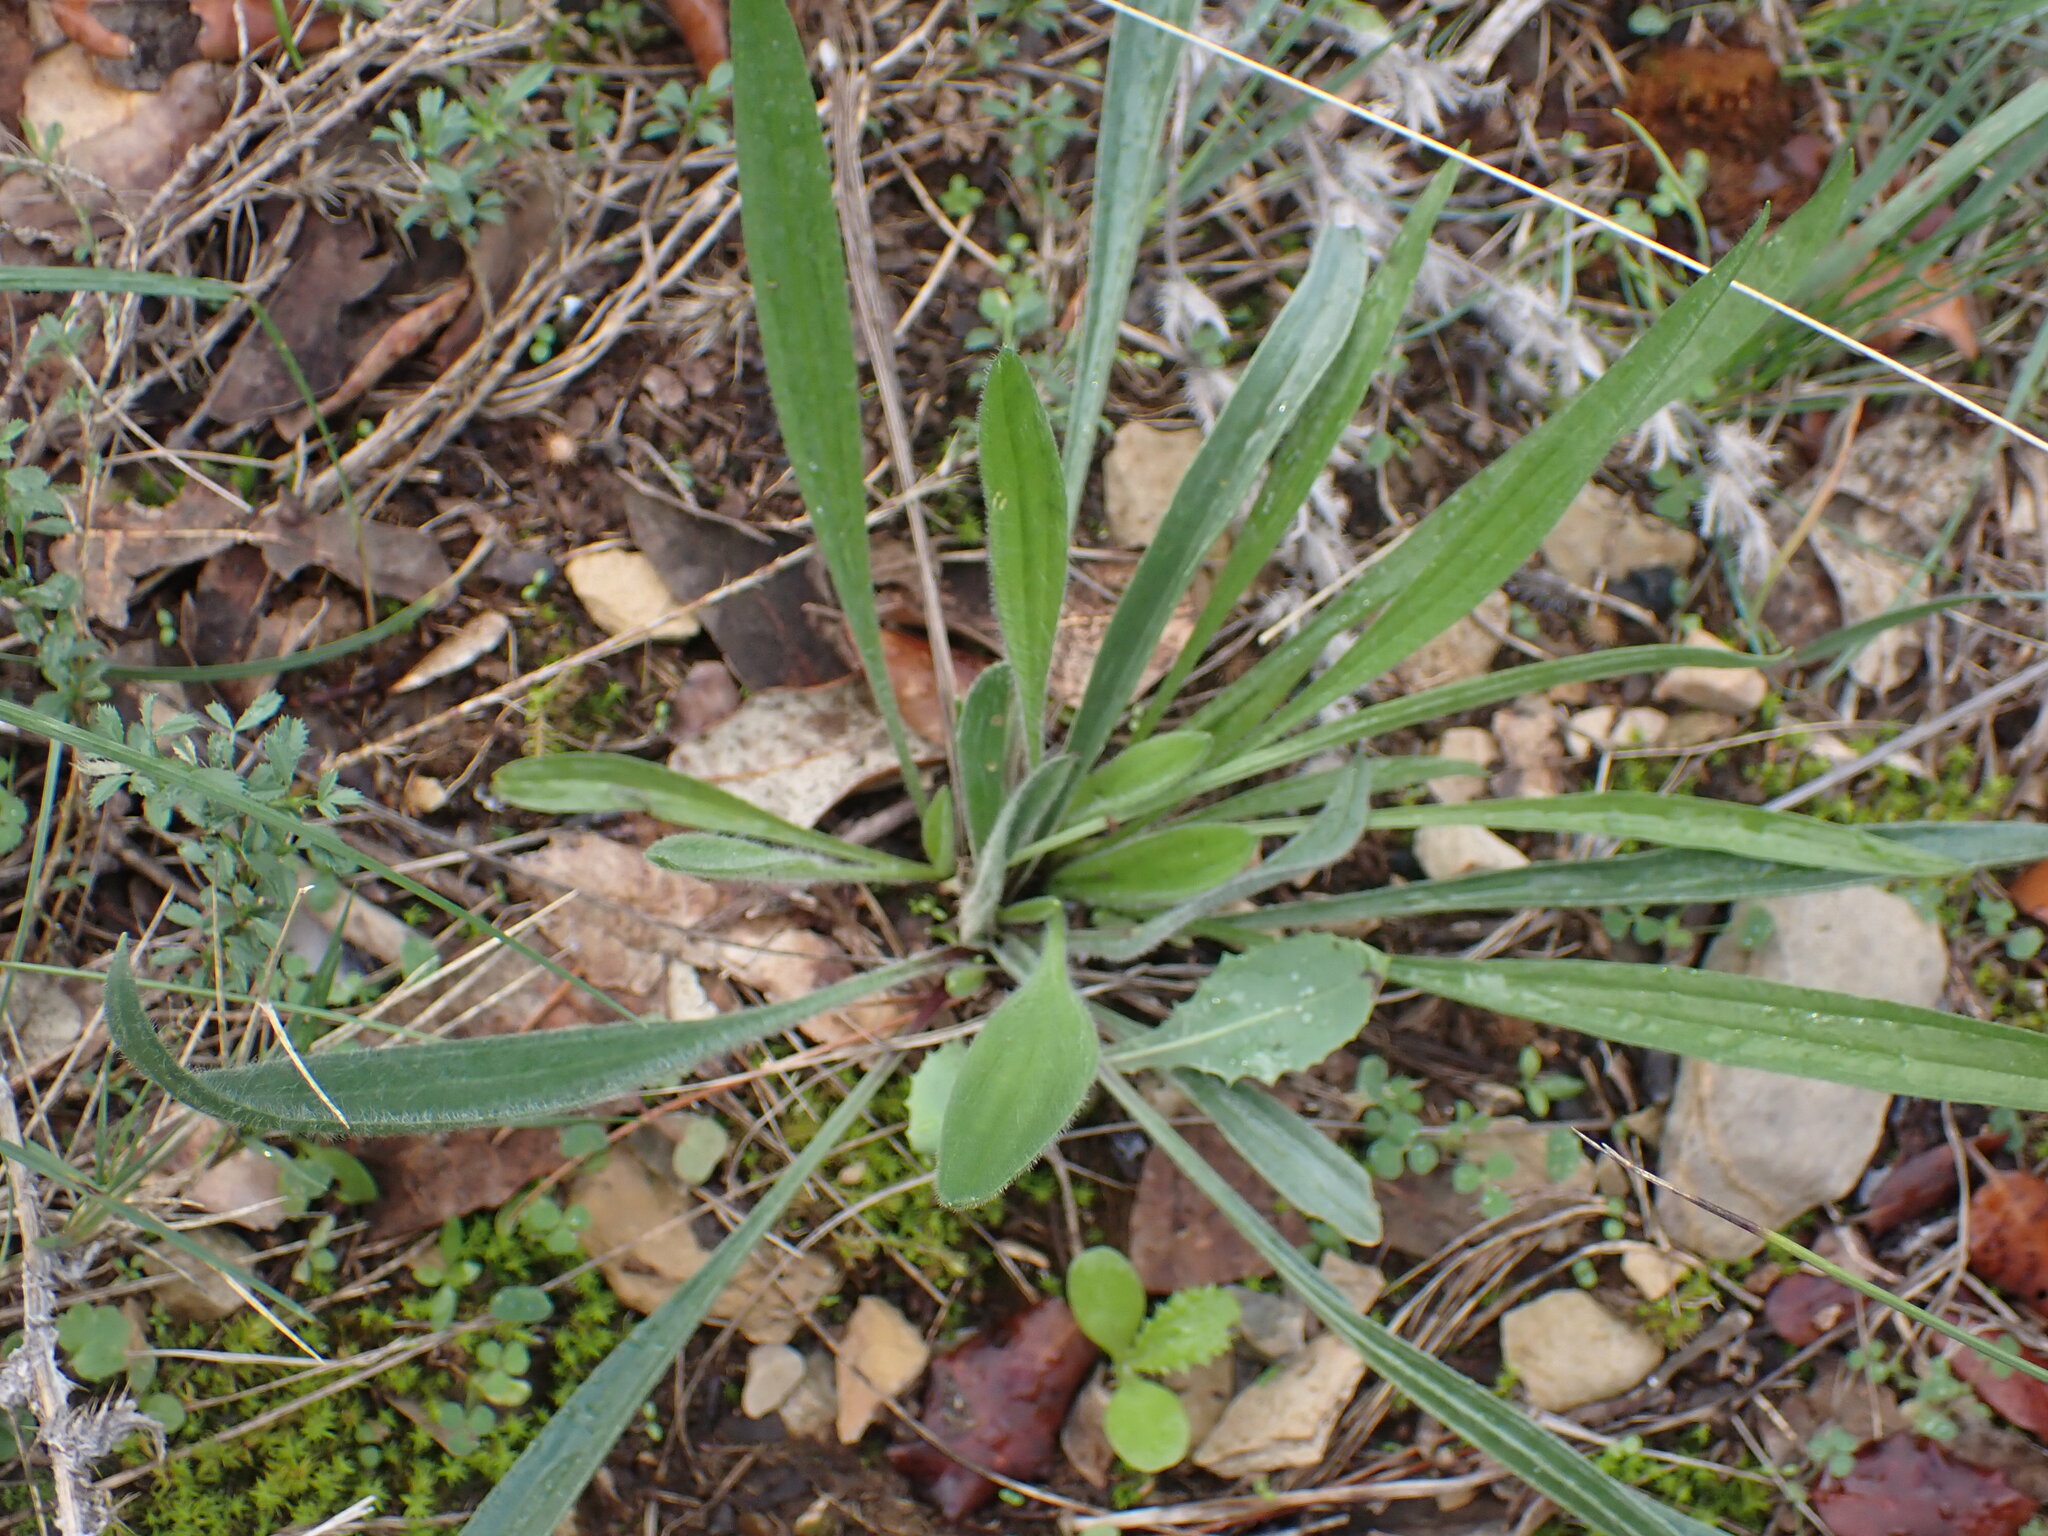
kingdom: Plantae
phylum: Tracheophyta
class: Magnoliopsida
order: Lamiales
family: Plantaginaceae
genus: Plantago
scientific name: Plantago lanceolata
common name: Ribwort plantain
